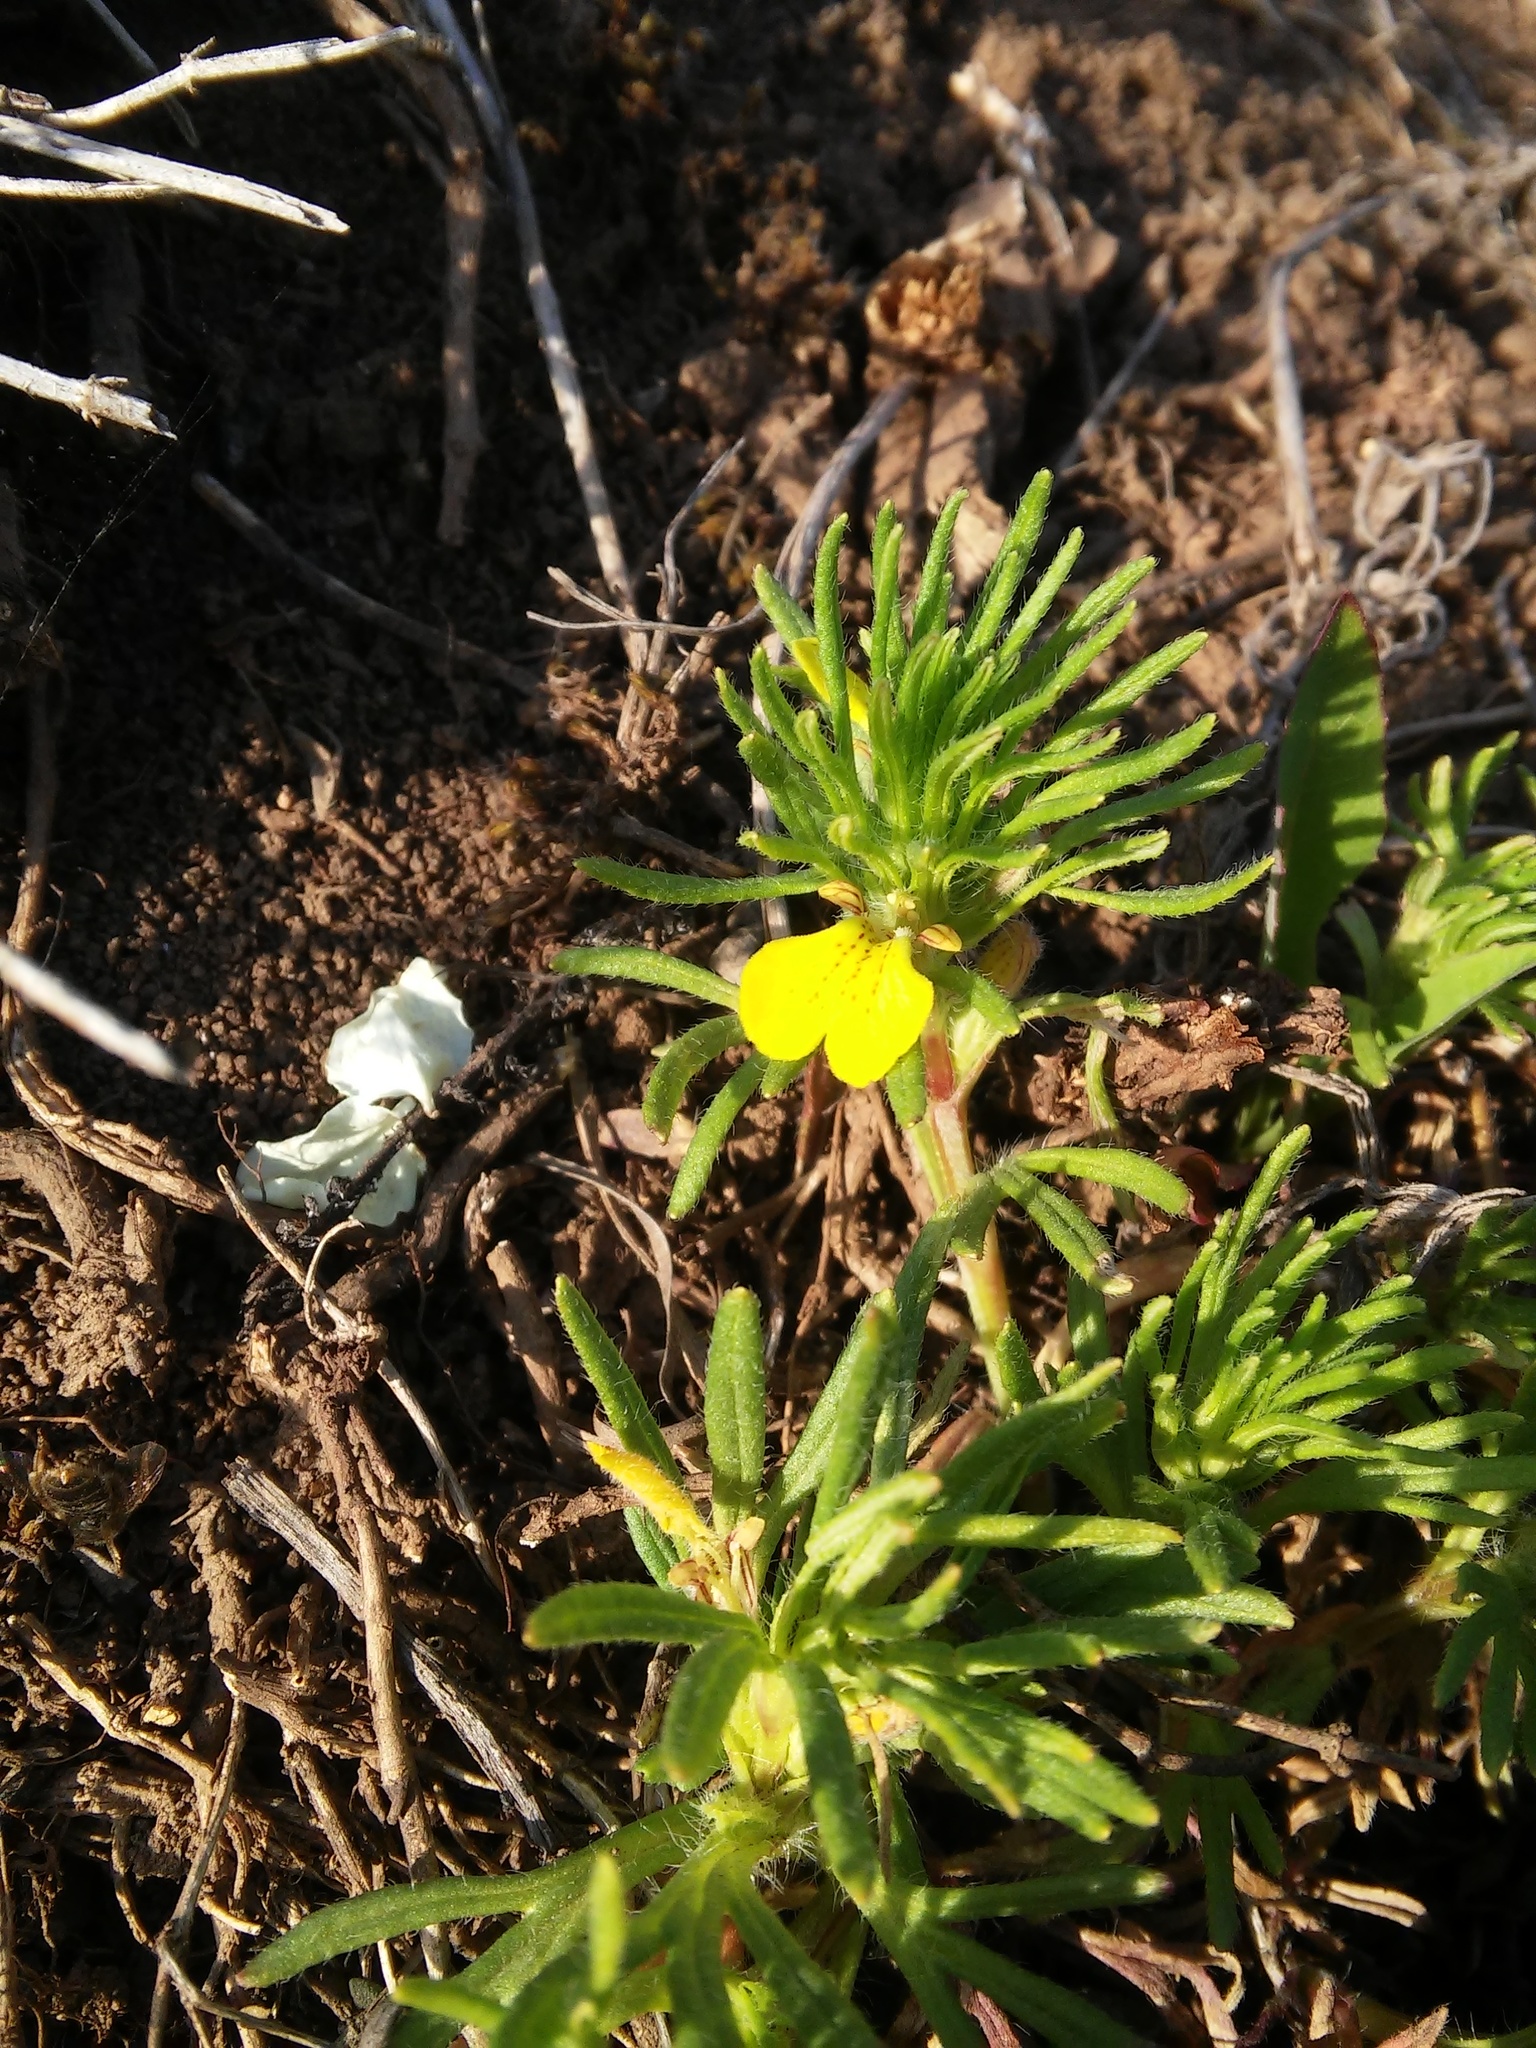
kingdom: Plantae
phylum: Tracheophyta
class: Magnoliopsida
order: Lamiales
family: Lamiaceae
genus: Ajuga
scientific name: Ajuga chamaepitys
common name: Ground-pine
